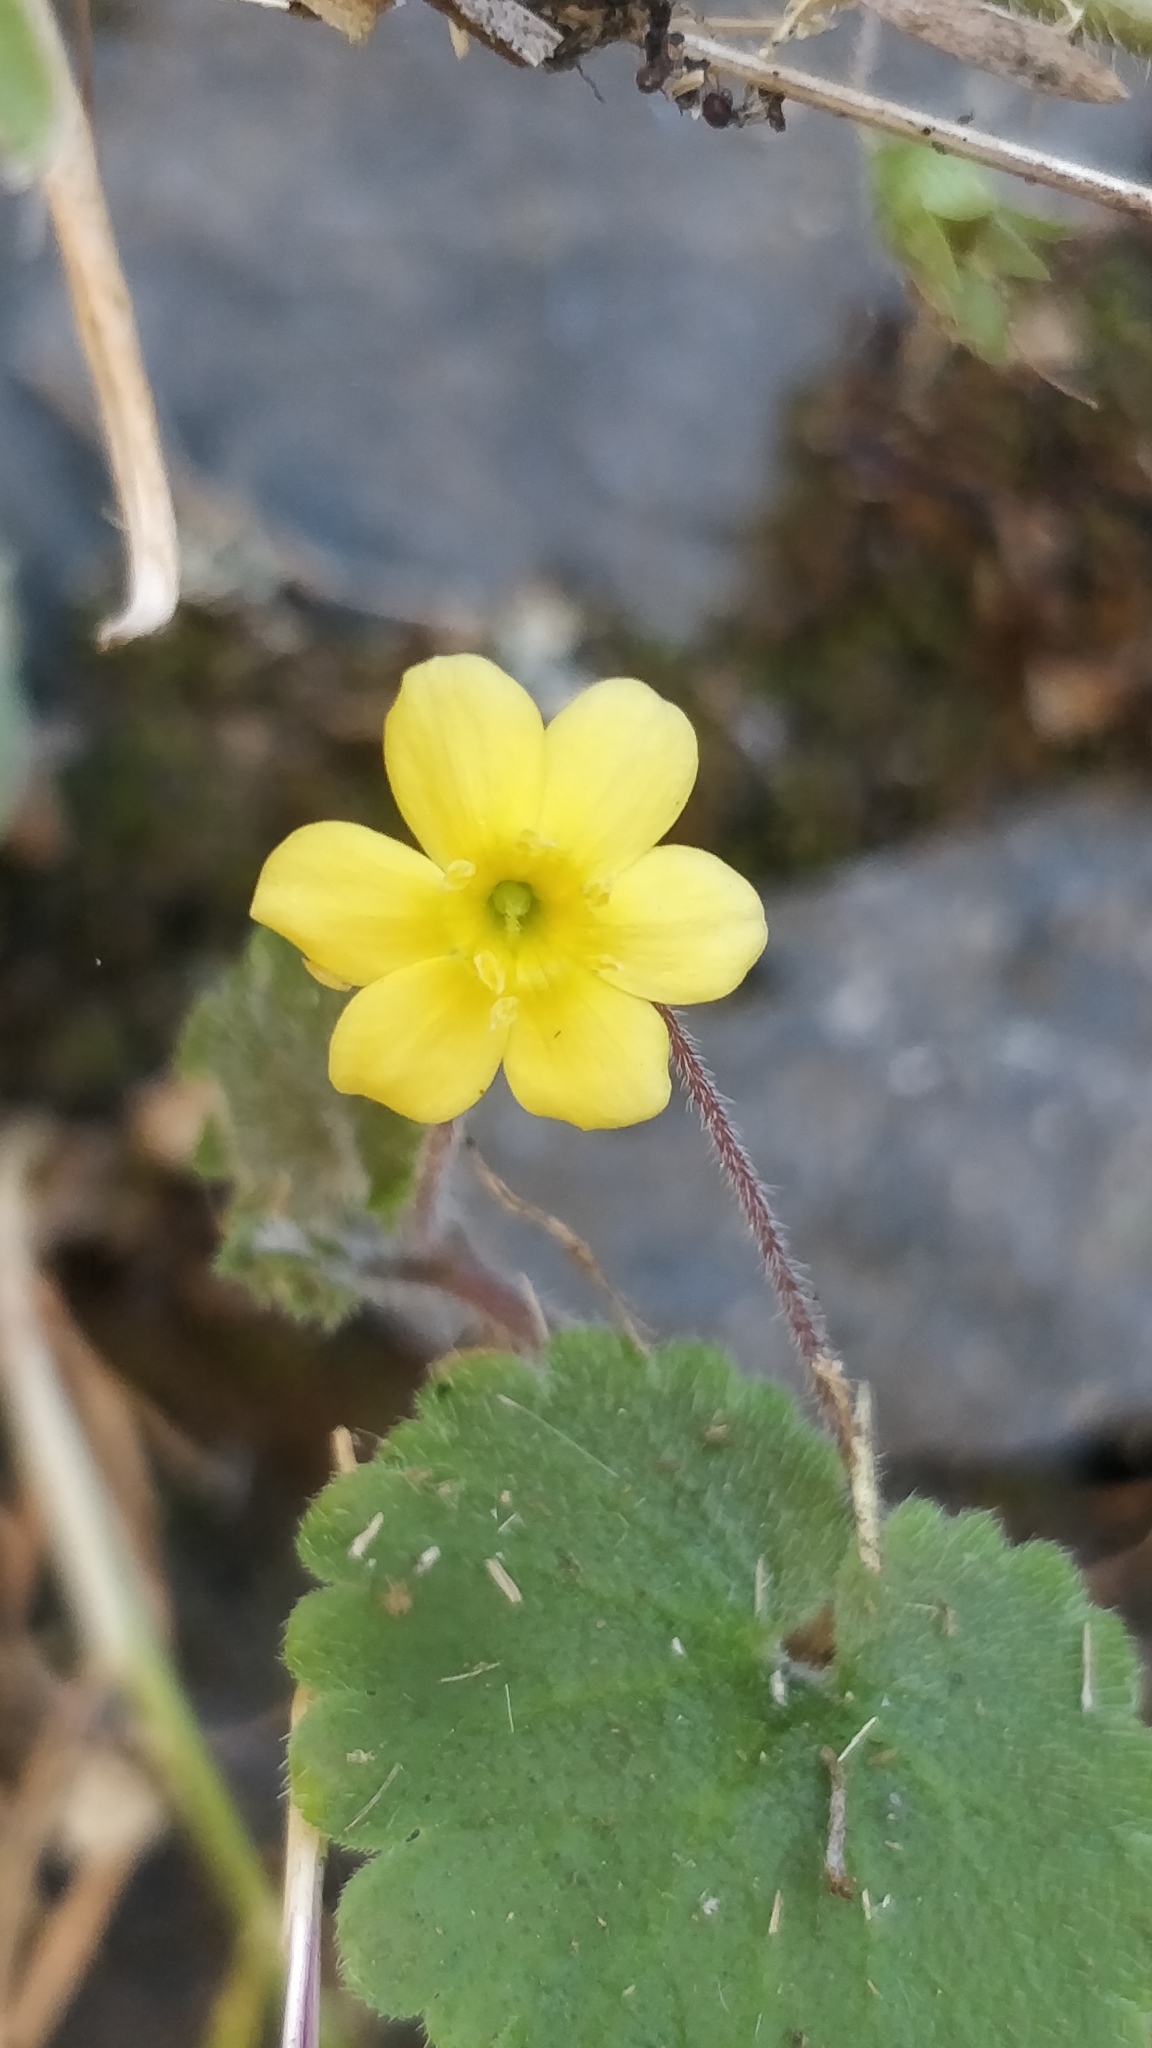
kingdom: Plantae
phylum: Tracheophyta
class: Magnoliopsida
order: Lamiales
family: Plantaginaceae
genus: Sibthorpia
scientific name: Sibthorpia peregrina
